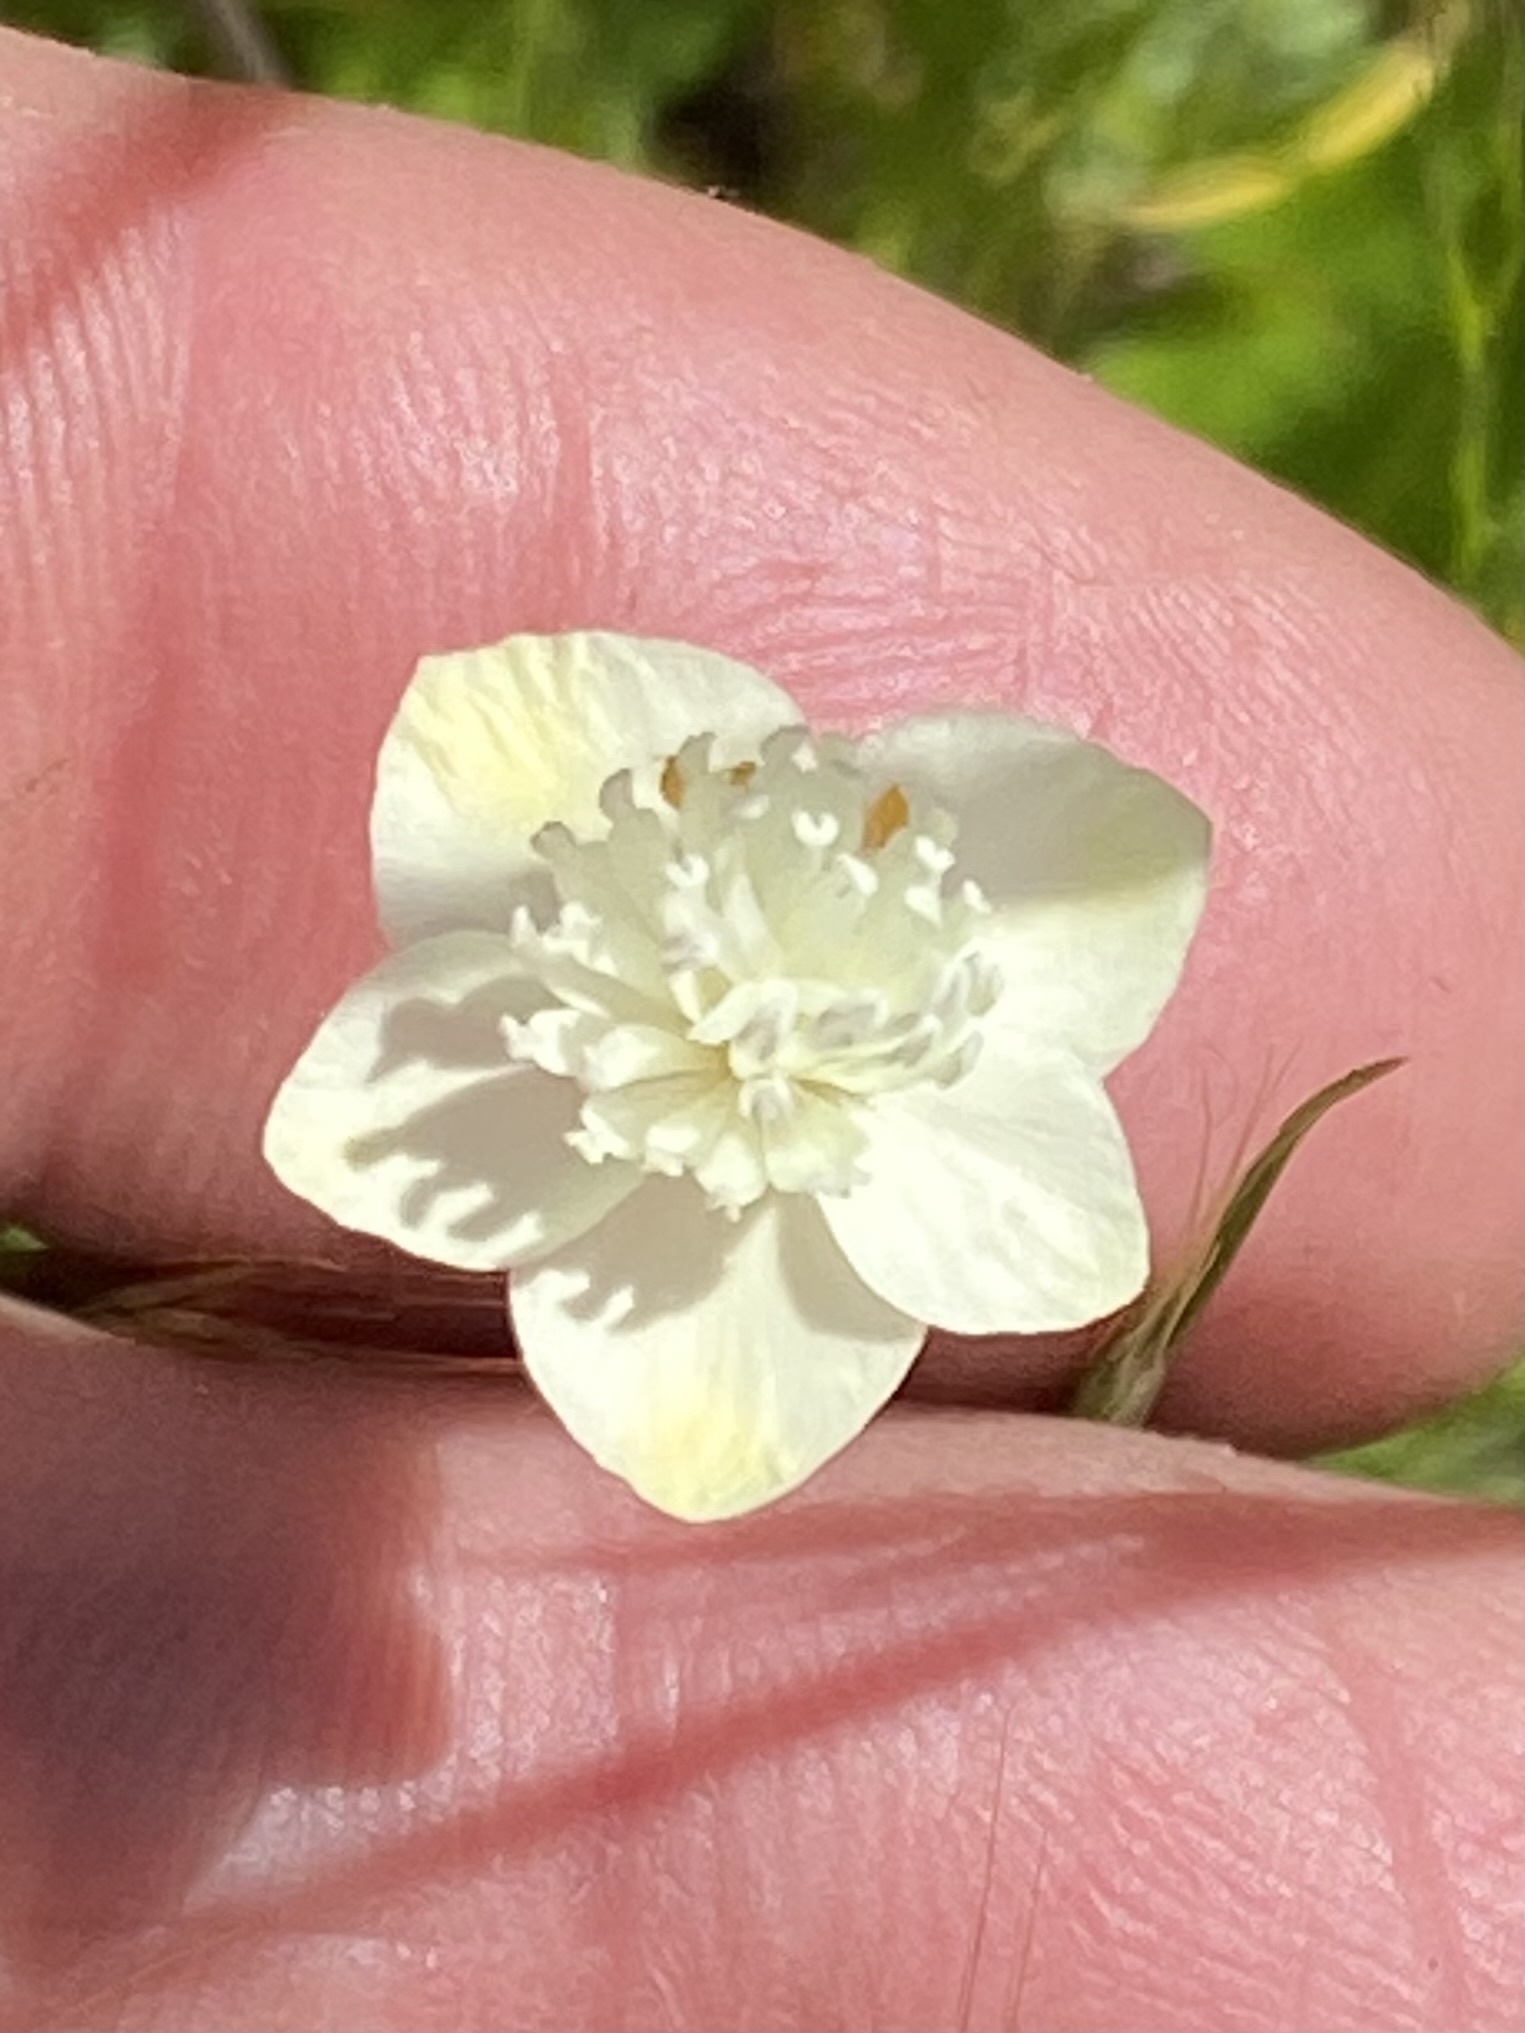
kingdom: Plantae
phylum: Tracheophyta
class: Magnoliopsida
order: Ranunculales
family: Papaveraceae
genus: Platystemon
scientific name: Platystemon californicus
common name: Cream-cups
